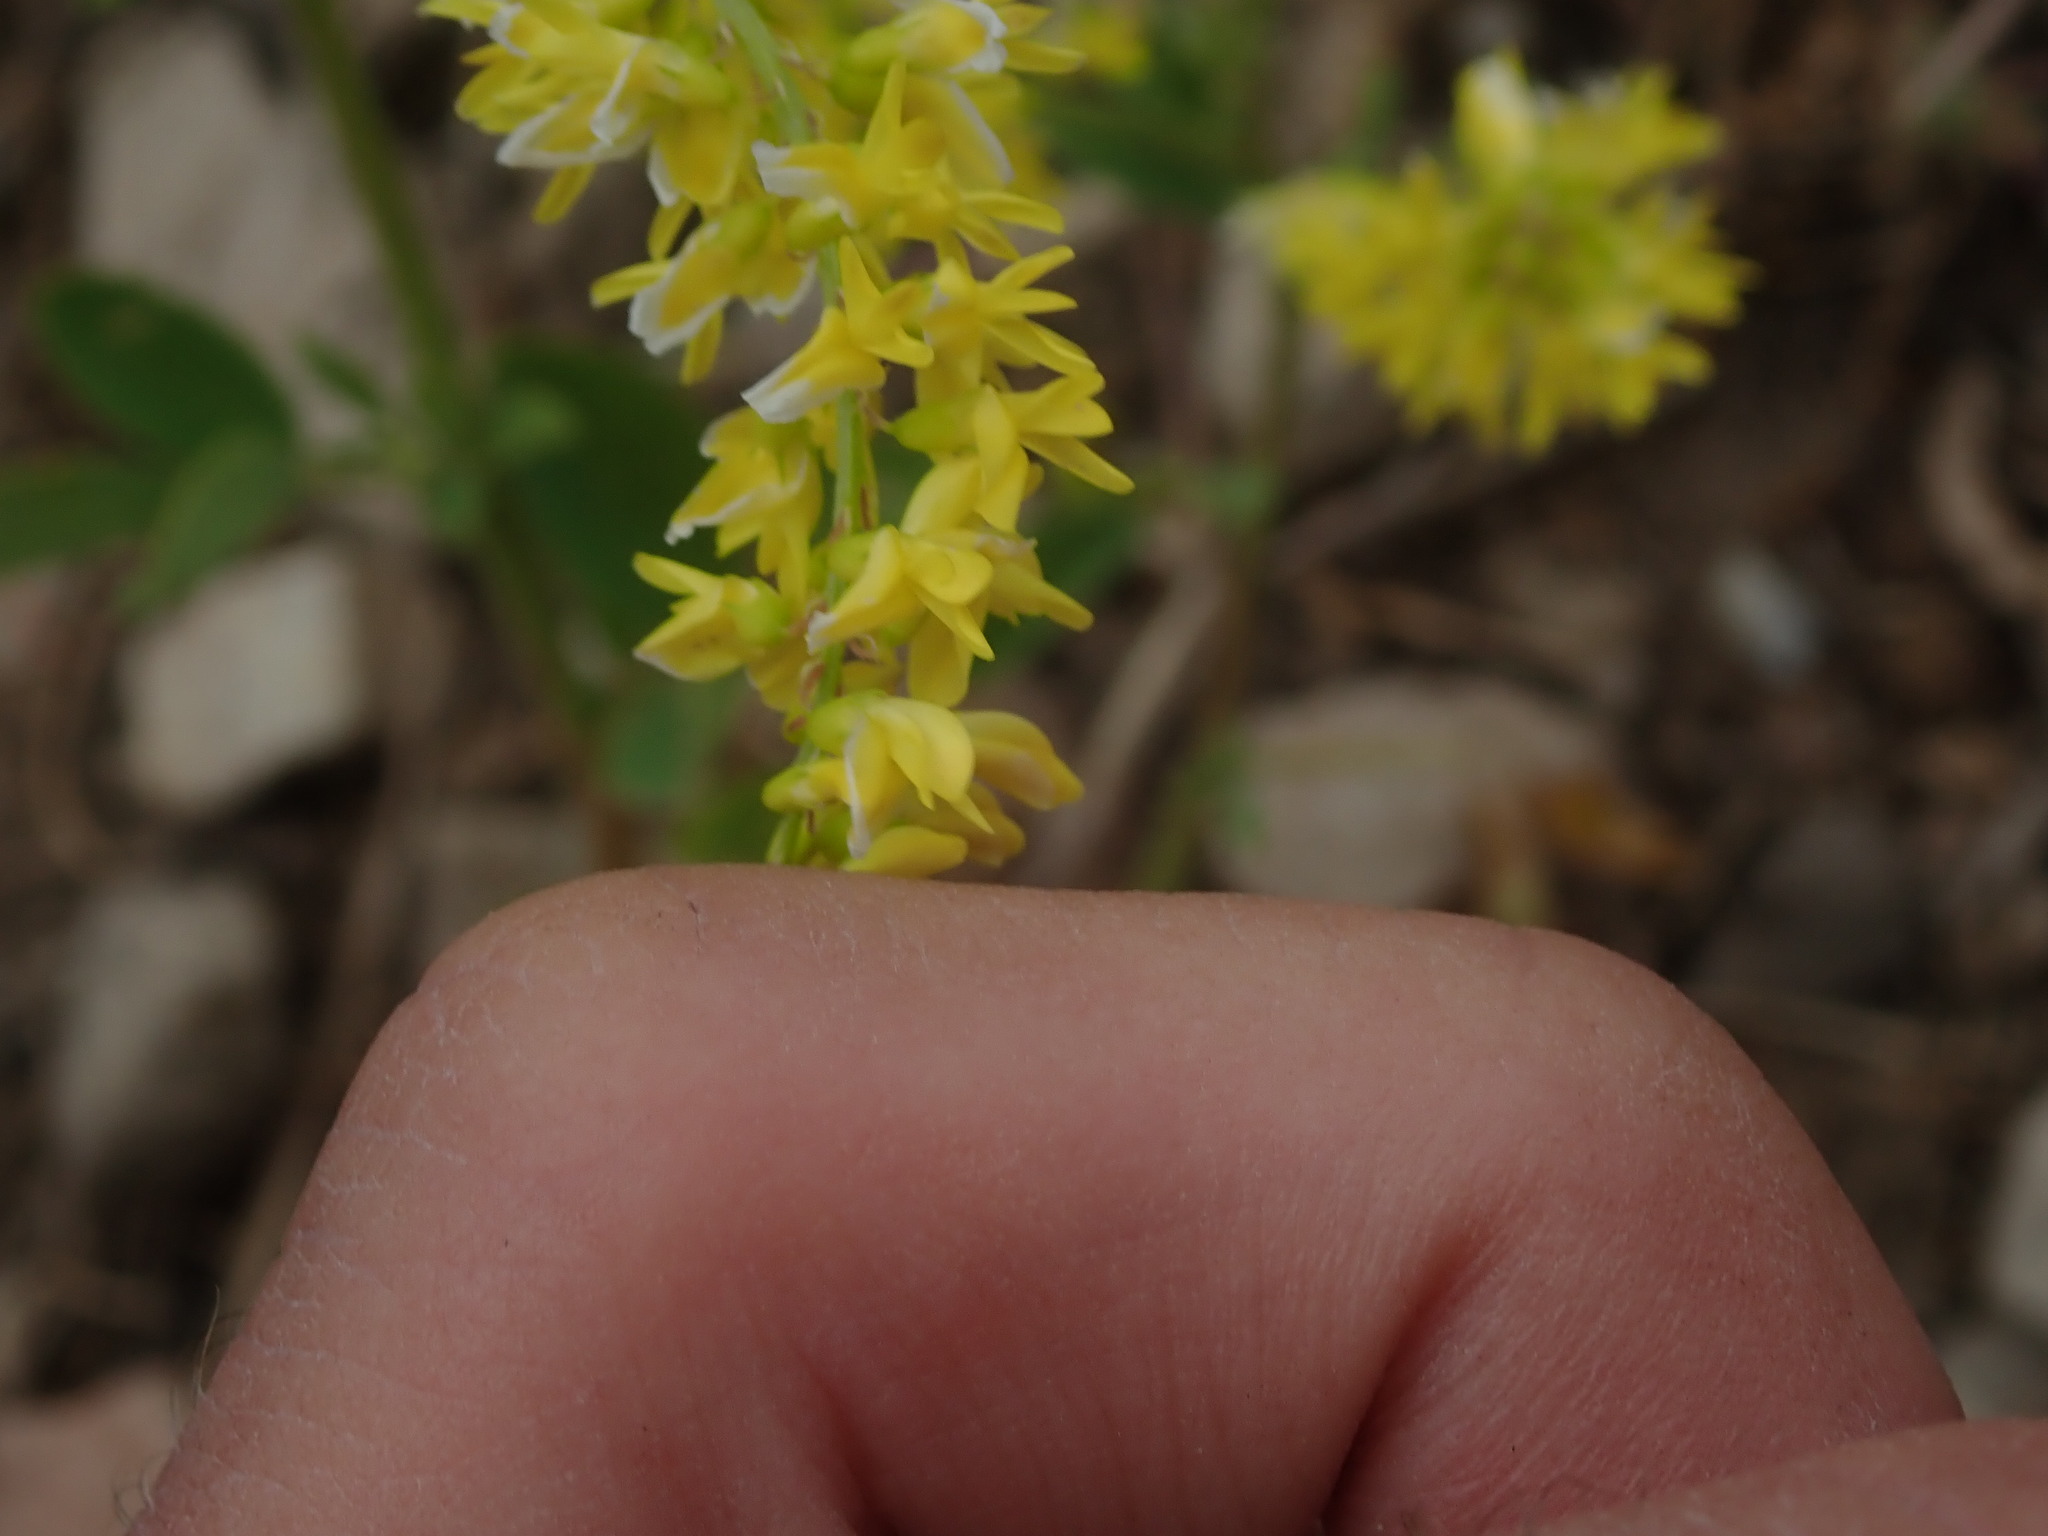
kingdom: Plantae
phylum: Tracheophyta
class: Magnoliopsida
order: Fabales
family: Fabaceae
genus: Melilotus
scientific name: Melilotus officinalis
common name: Sweetclover
